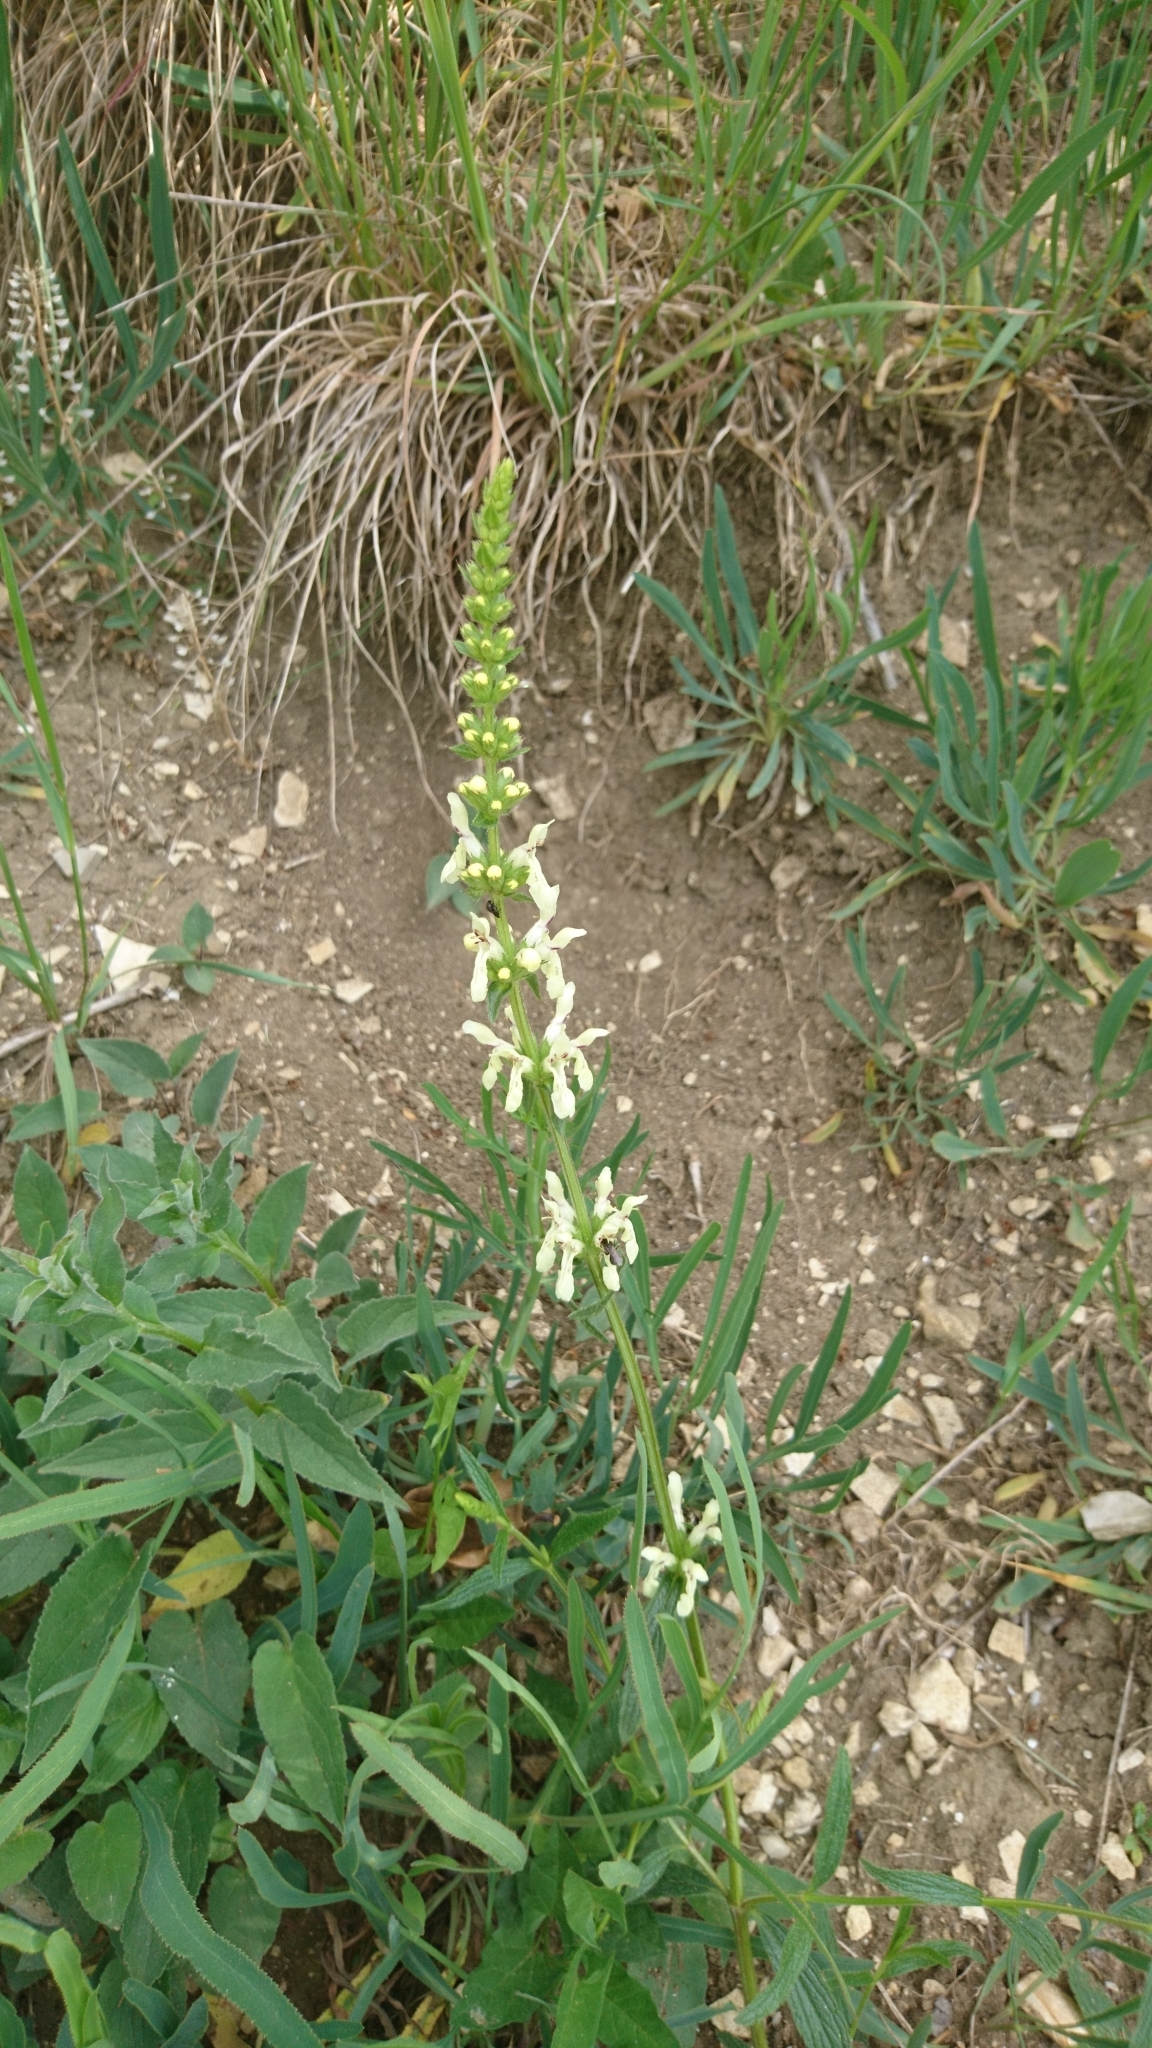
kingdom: Plantae
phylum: Tracheophyta
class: Magnoliopsida
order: Lamiales
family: Lamiaceae
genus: Stachys
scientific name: Stachys recta
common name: Perennial yellow-woundwort
